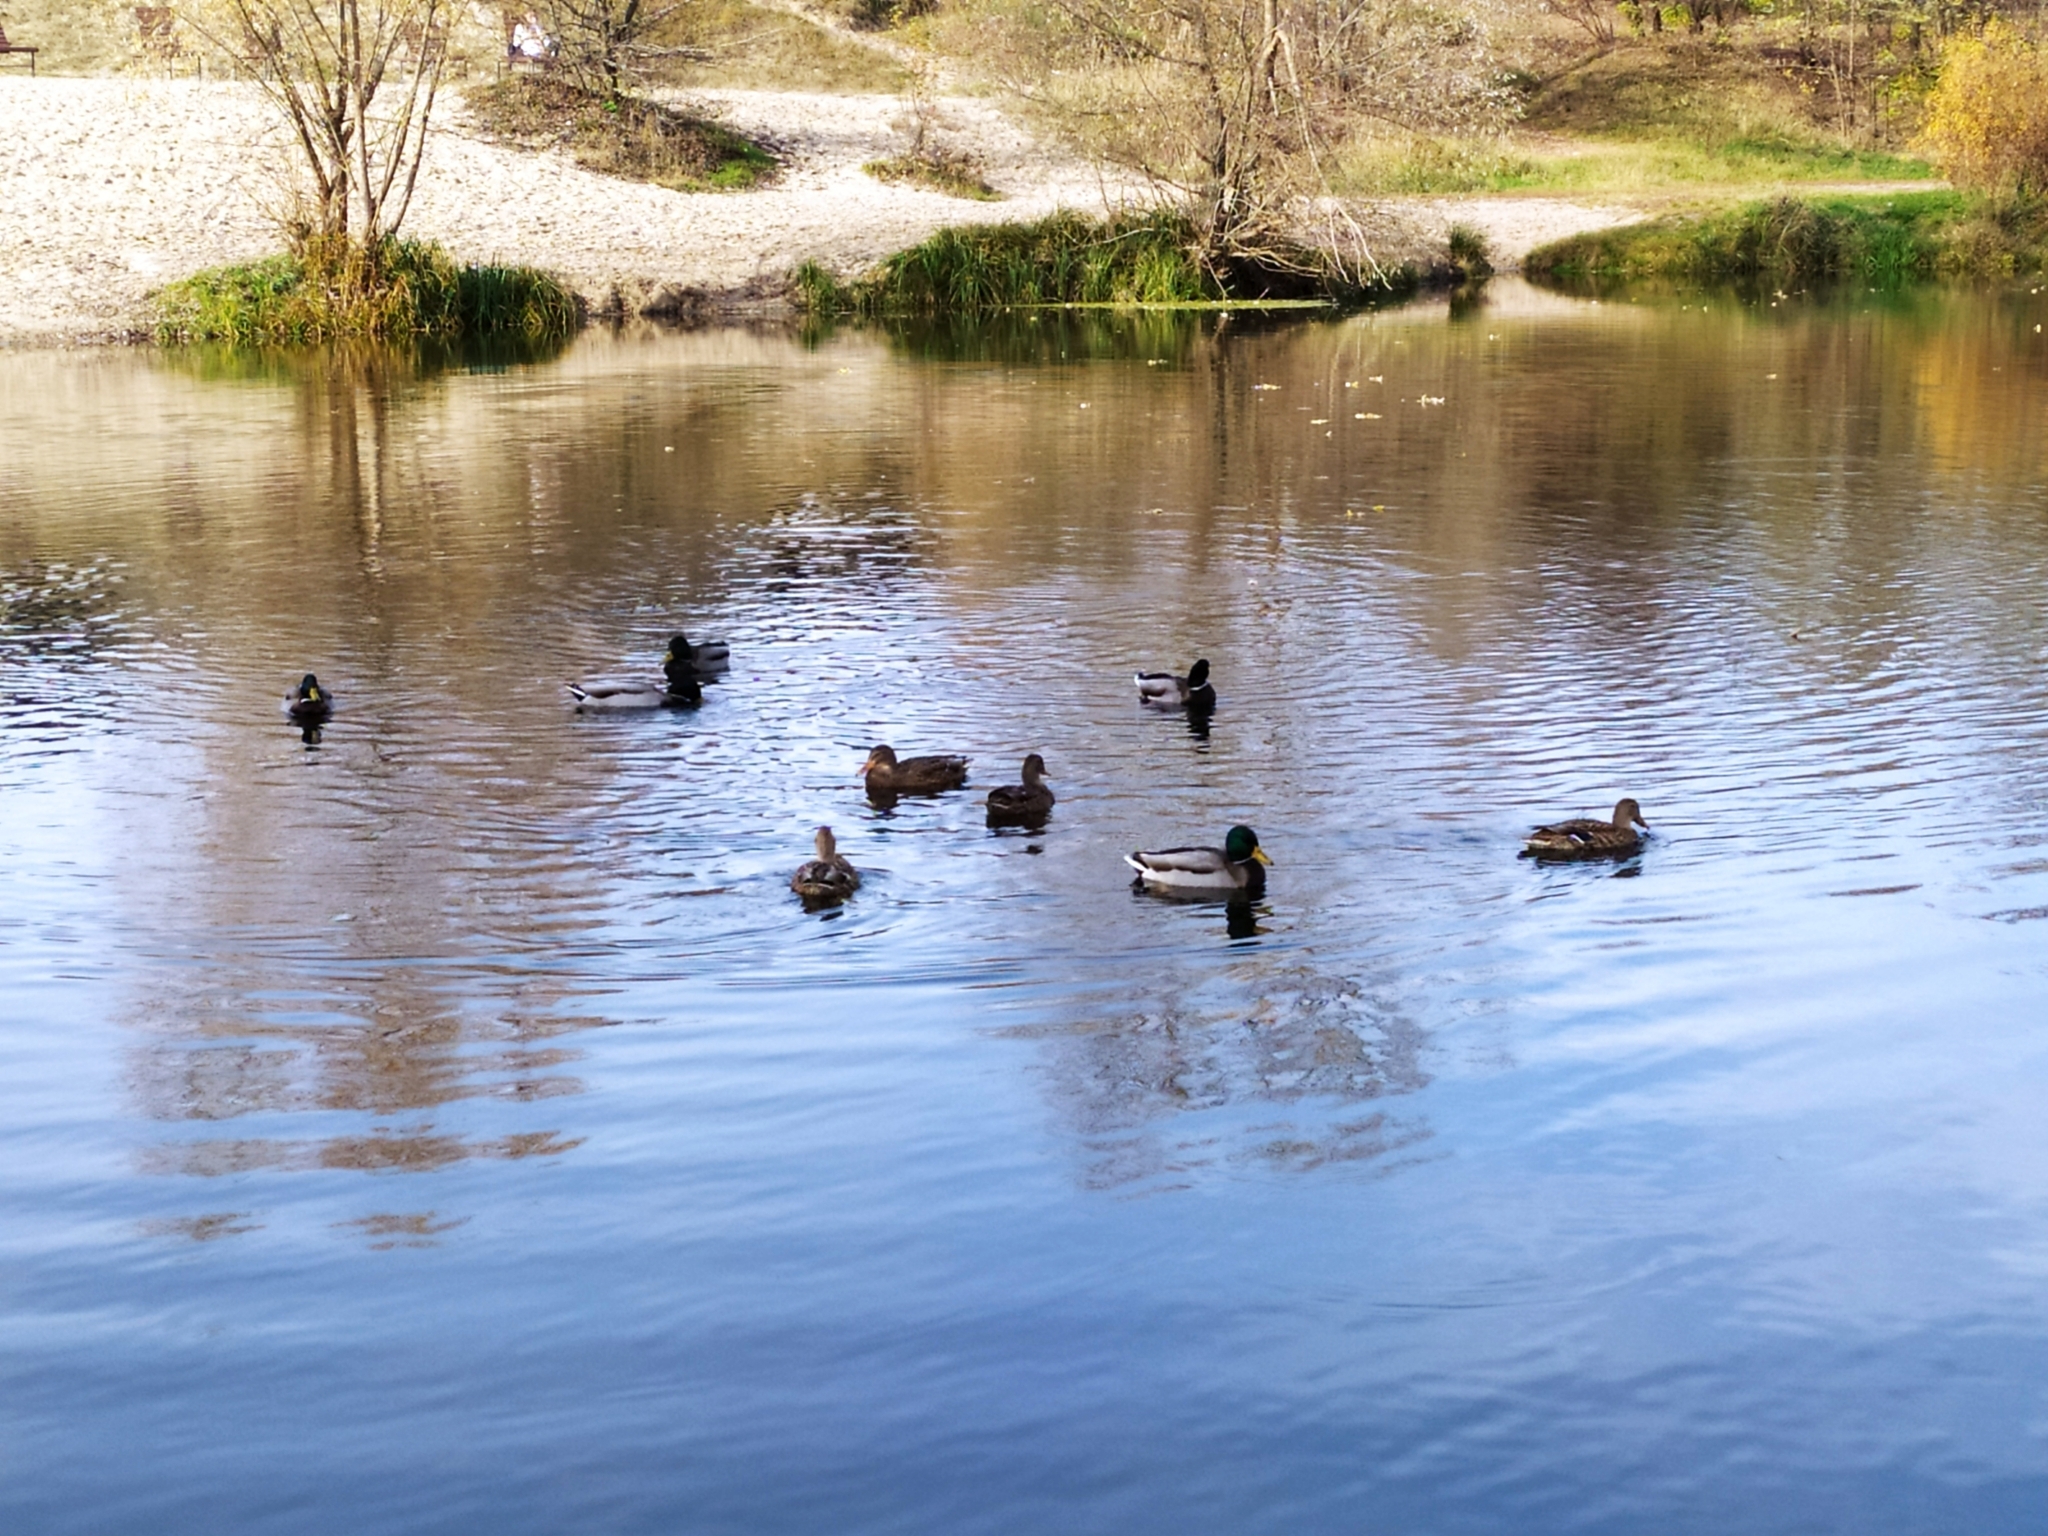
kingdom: Animalia
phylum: Chordata
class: Aves
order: Anseriformes
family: Anatidae
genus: Anas
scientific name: Anas platyrhynchos
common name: Mallard
